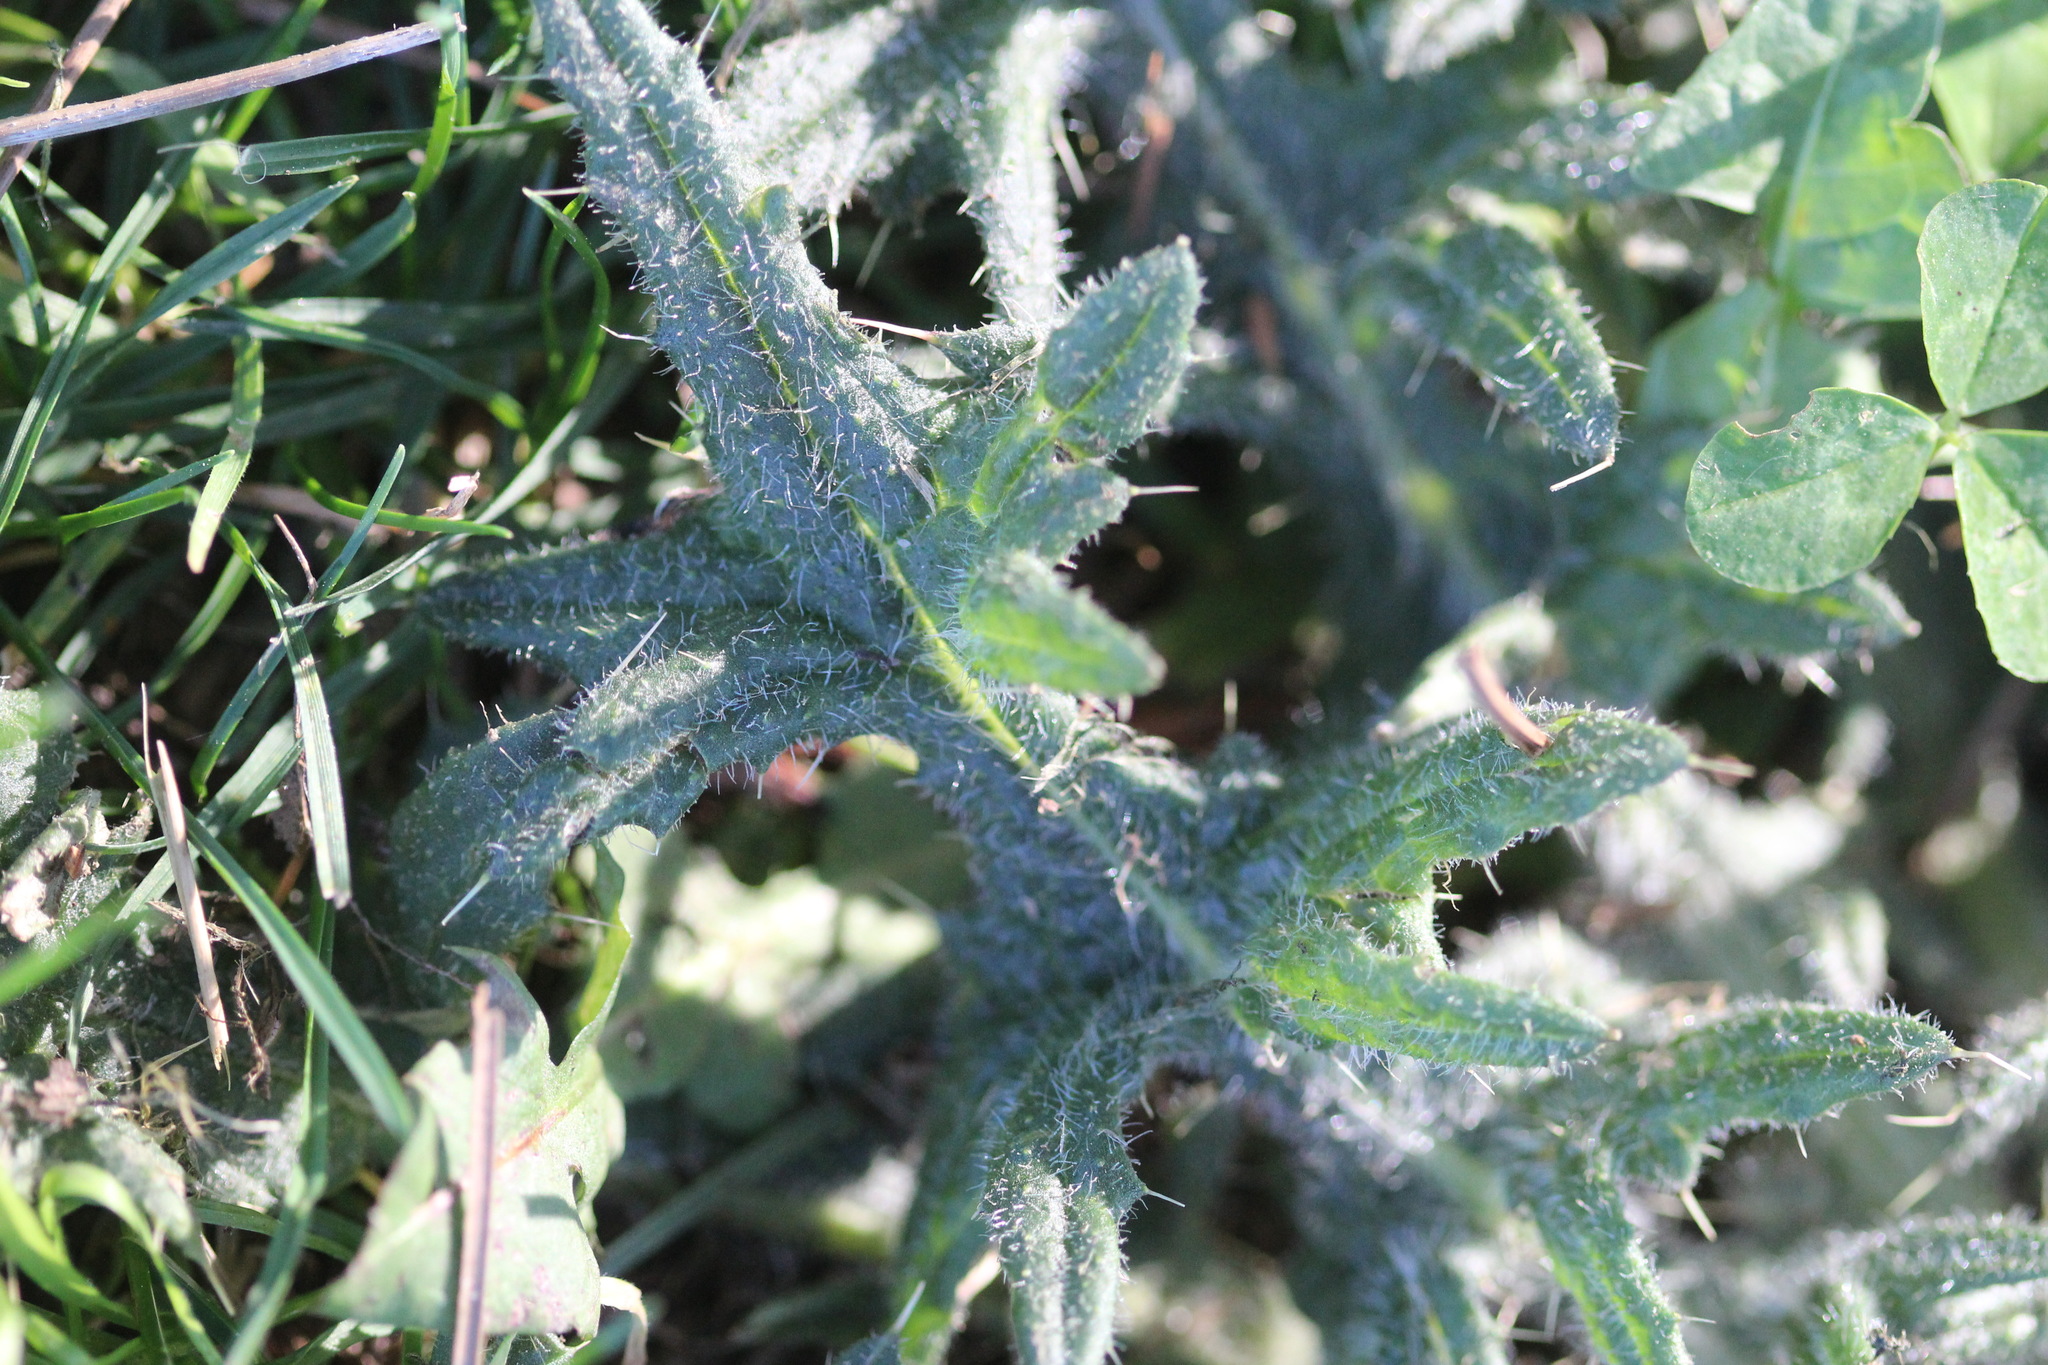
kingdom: Plantae
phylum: Tracheophyta
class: Magnoliopsida
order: Asterales
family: Asteraceae
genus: Cirsium
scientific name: Cirsium vulgare
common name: Bull thistle
